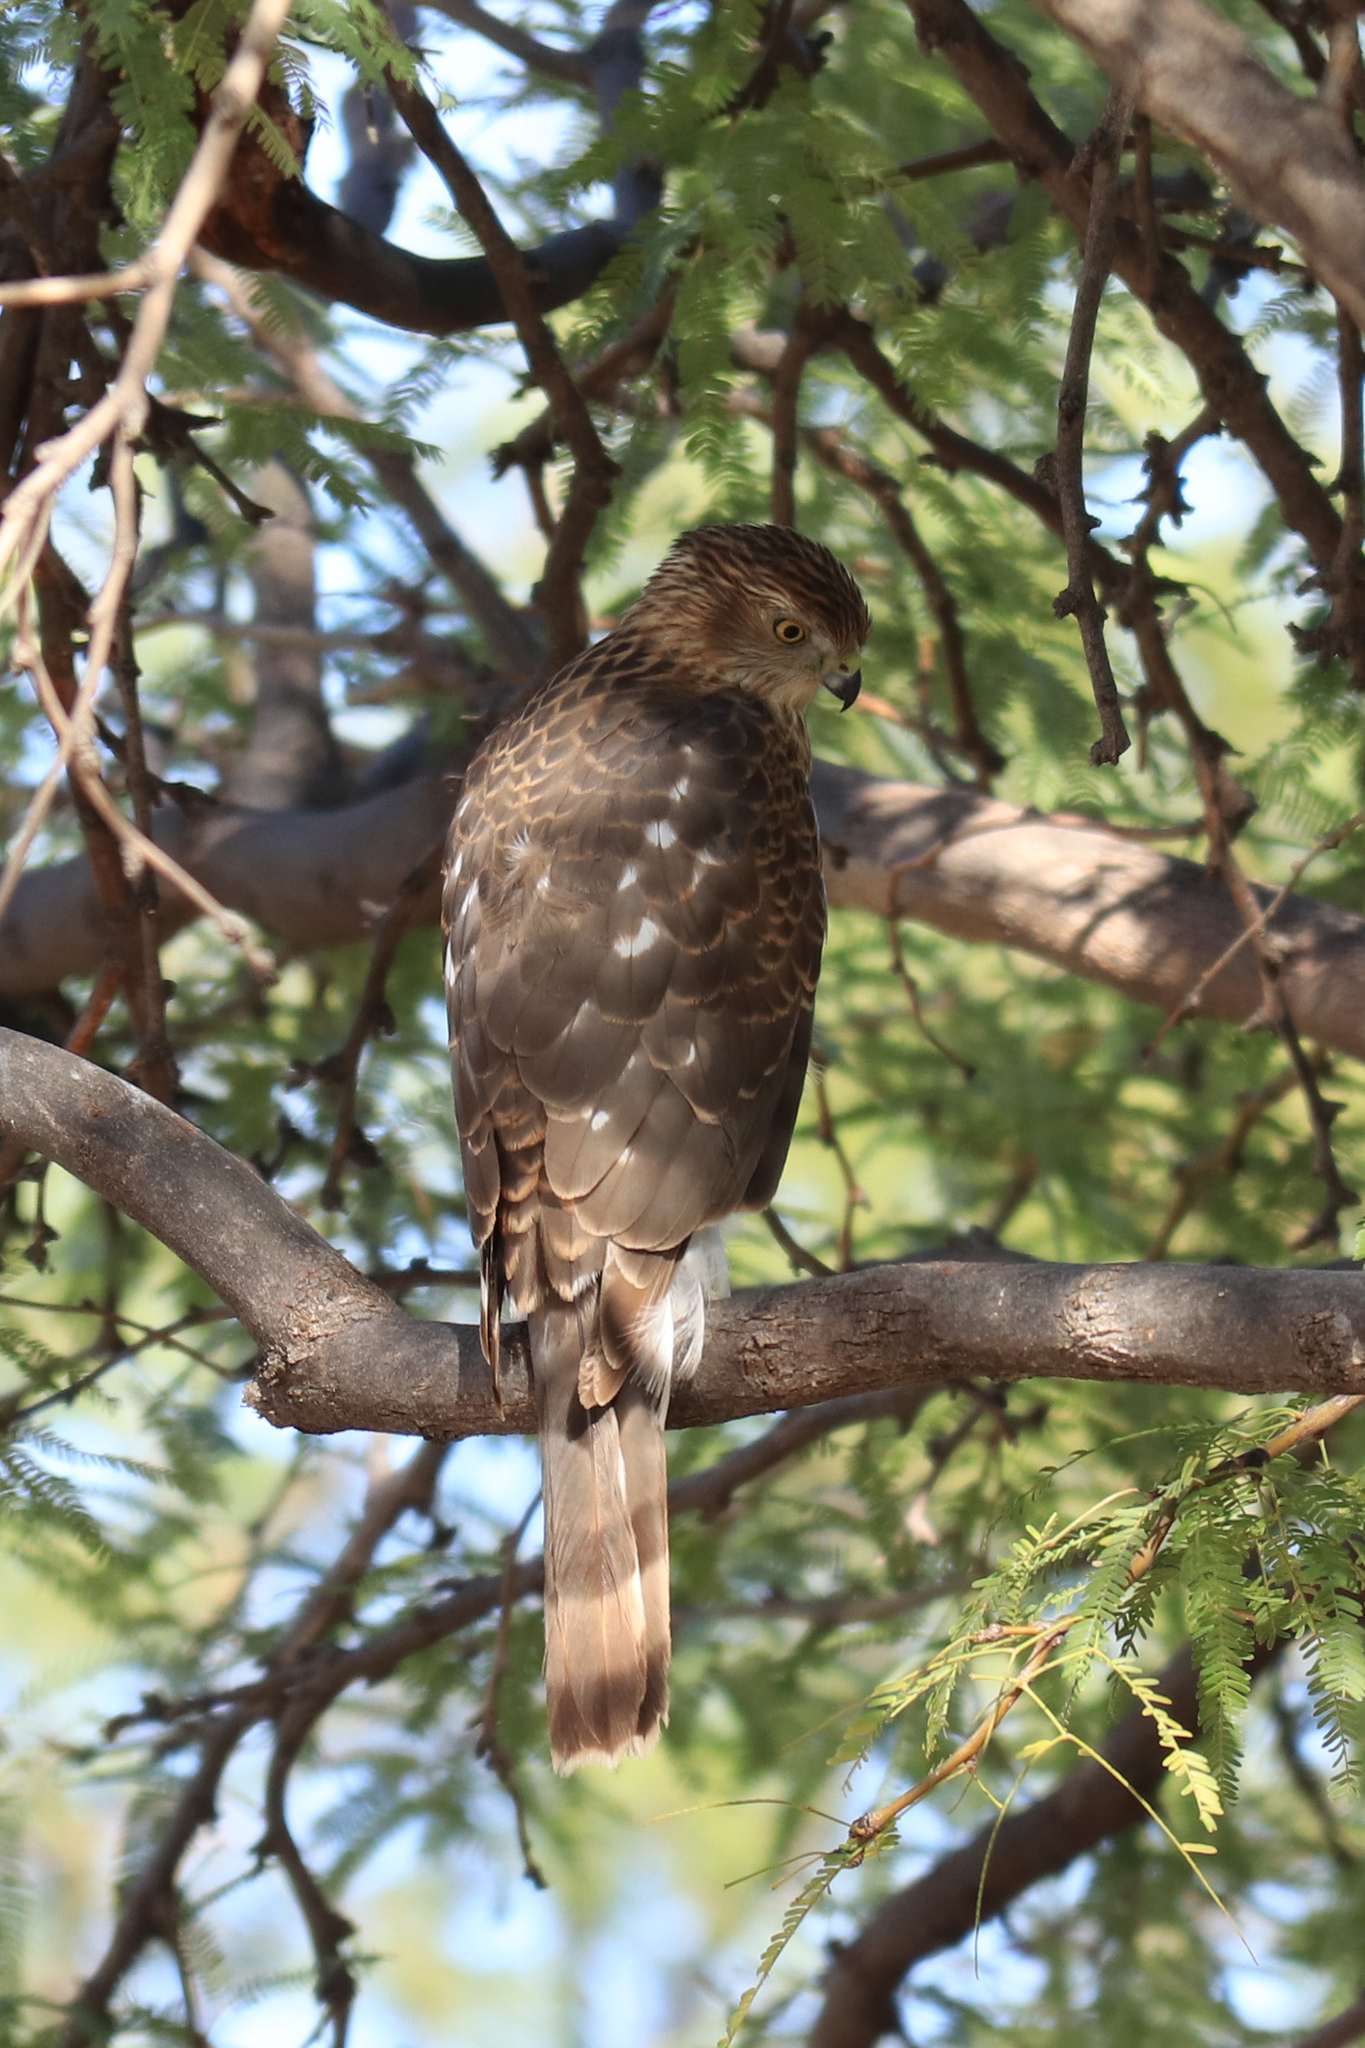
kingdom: Animalia
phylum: Chordata
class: Aves
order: Accipitriformes
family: Accipitridae
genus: Accipiter
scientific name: Accipiter cooperii
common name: Cooper's hawk
